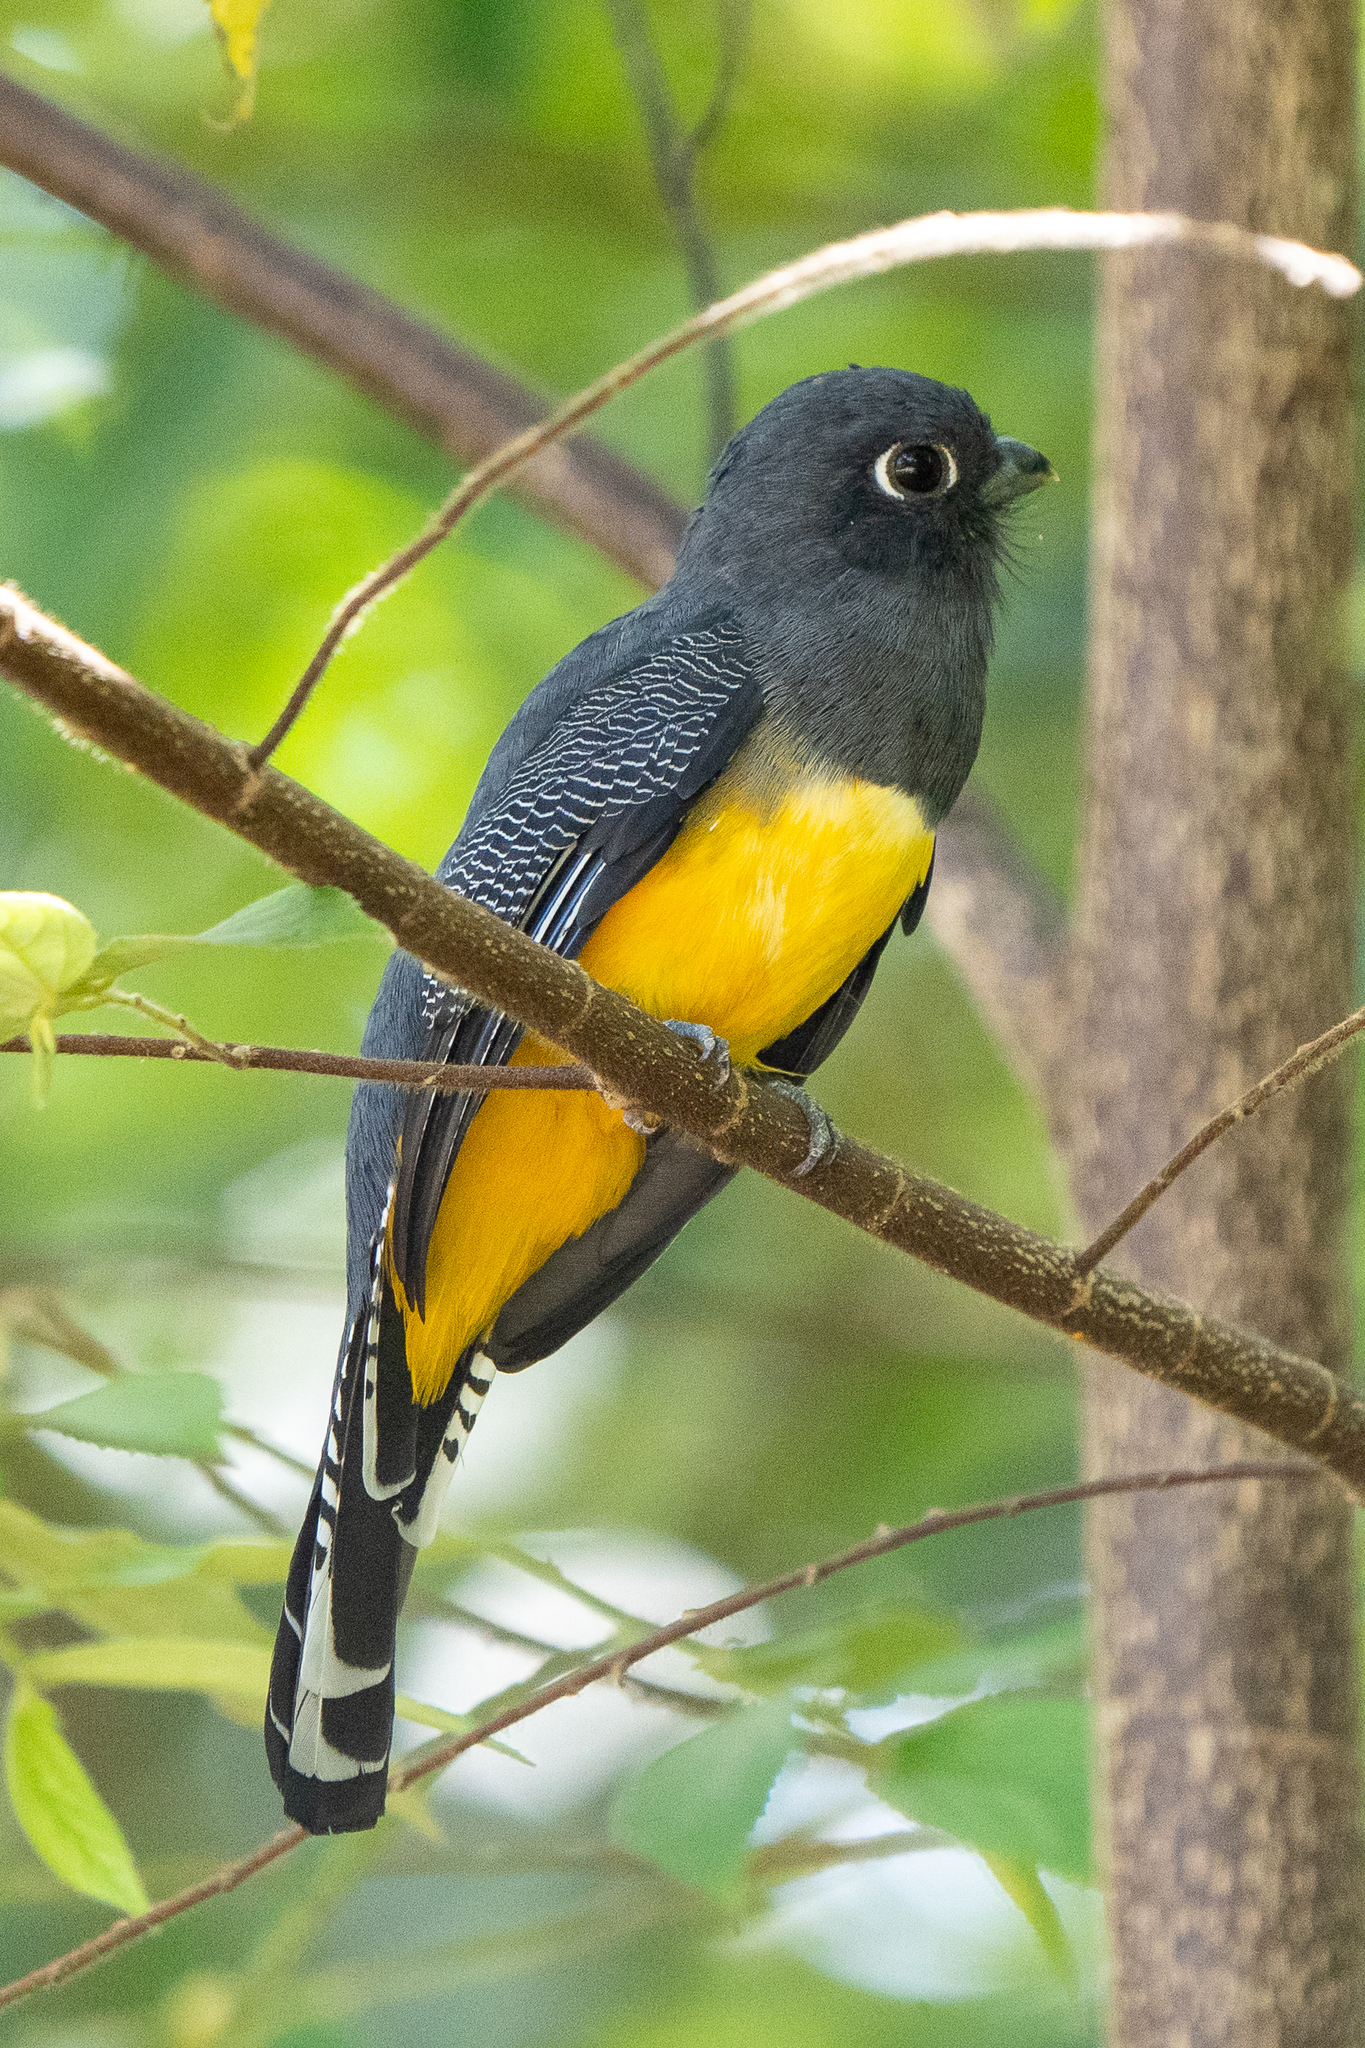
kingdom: Animalia
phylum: Chordata
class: Aves
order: Trogoniformes
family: Trogonidae
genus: Trogon
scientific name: Trogon caligatus
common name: Gartered trogon
